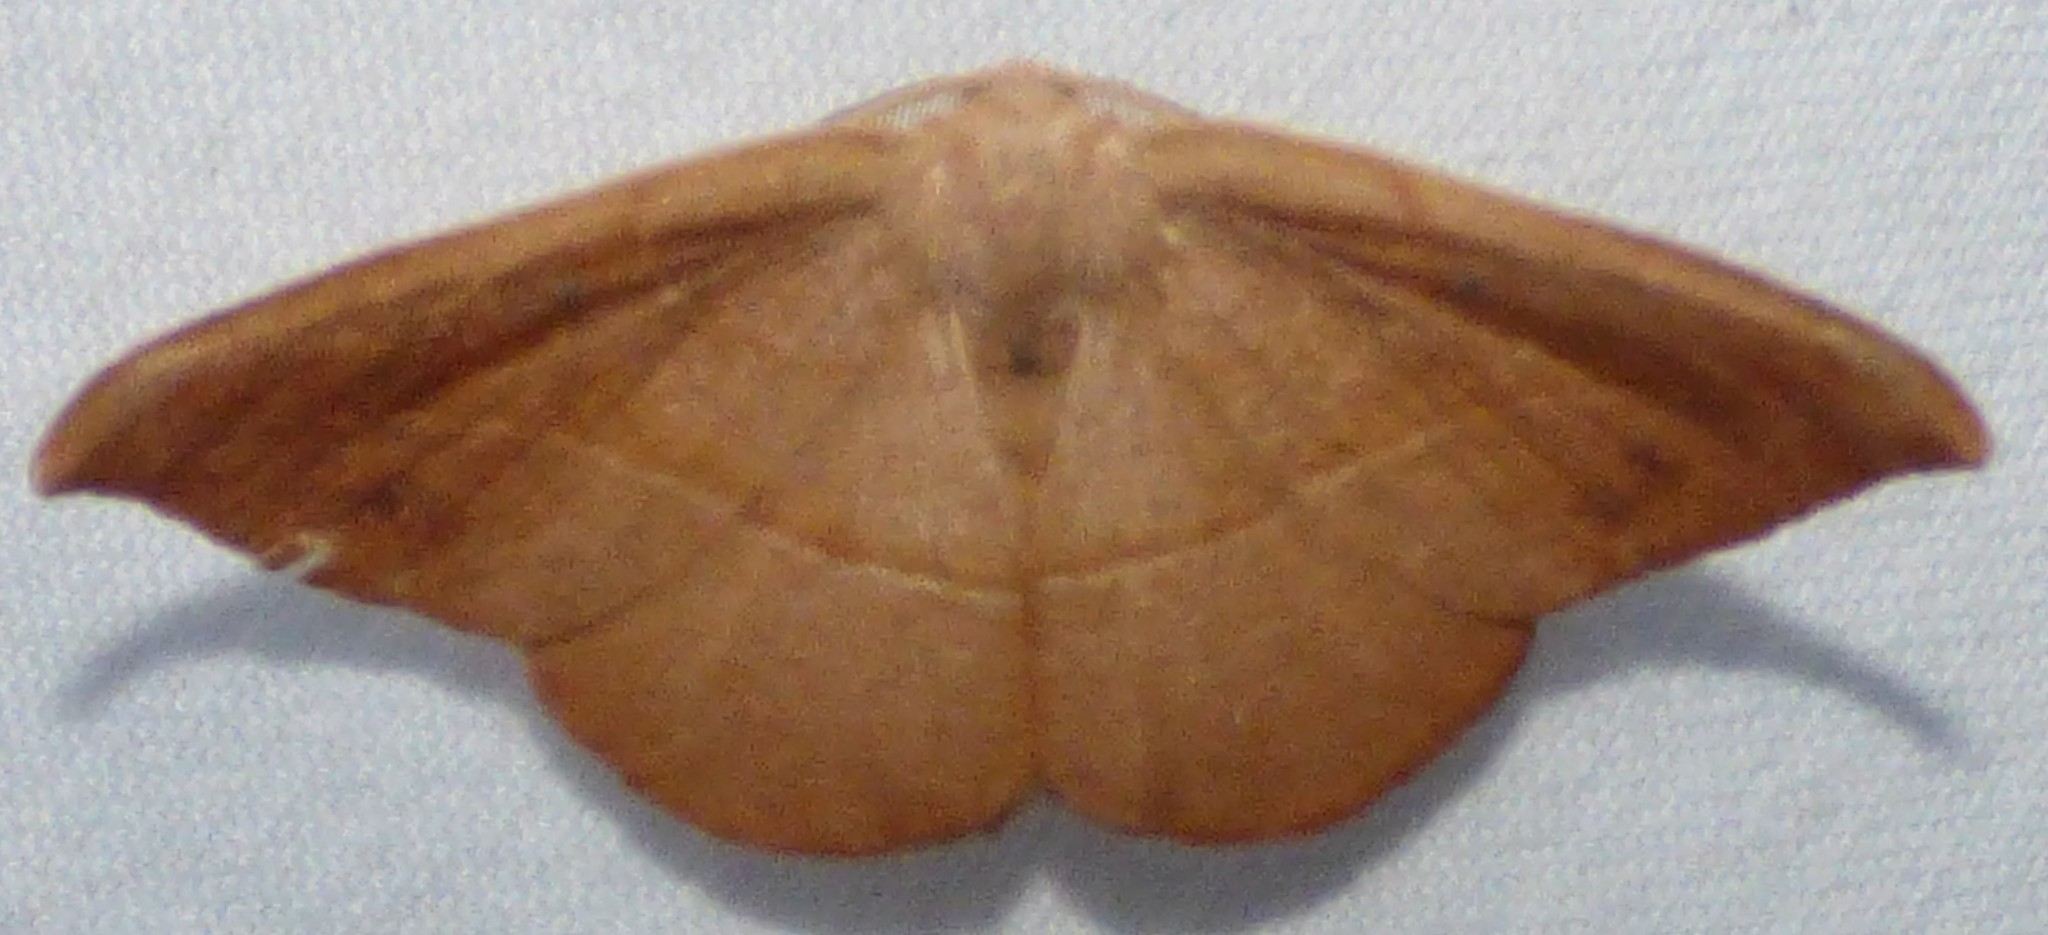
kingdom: Animalia
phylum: Arthropoda
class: Insecta
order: Lepidoptera
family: Geometridae
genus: Patalene
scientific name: Patalene olyzonaria
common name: Juniper geometer moth
